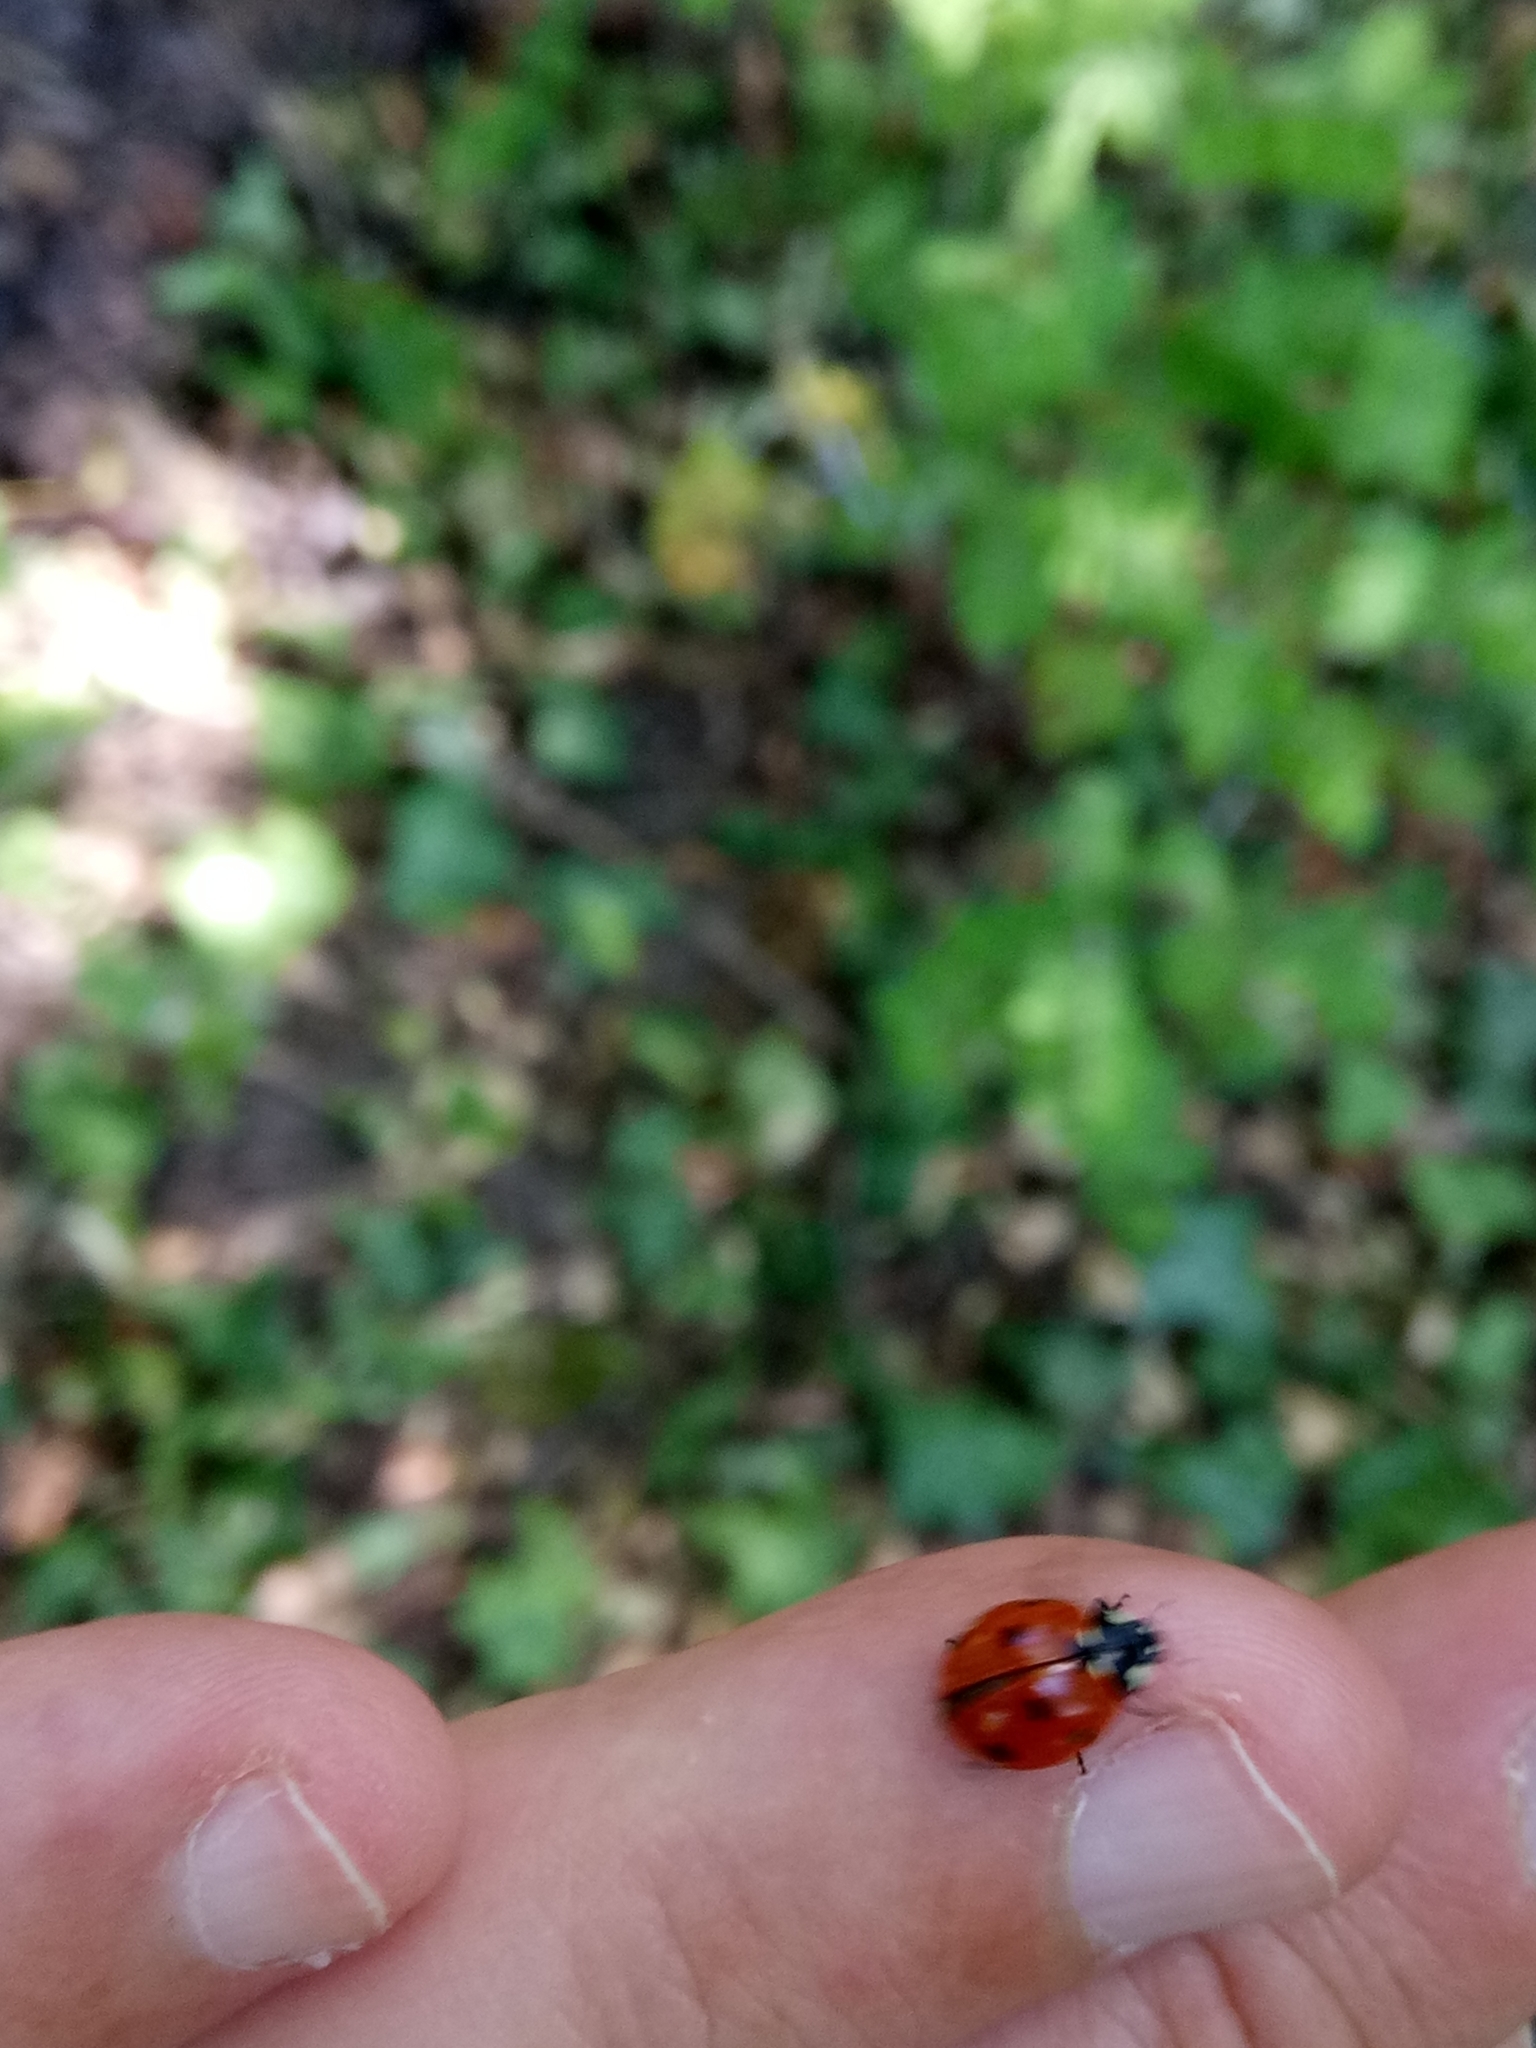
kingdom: Animalia
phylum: Arthropoda
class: Insecta
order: Coleoptera
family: Coccinellidae
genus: Coccinella
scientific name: Coccinella septempunctata
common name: Sevenspotted lady beetle
